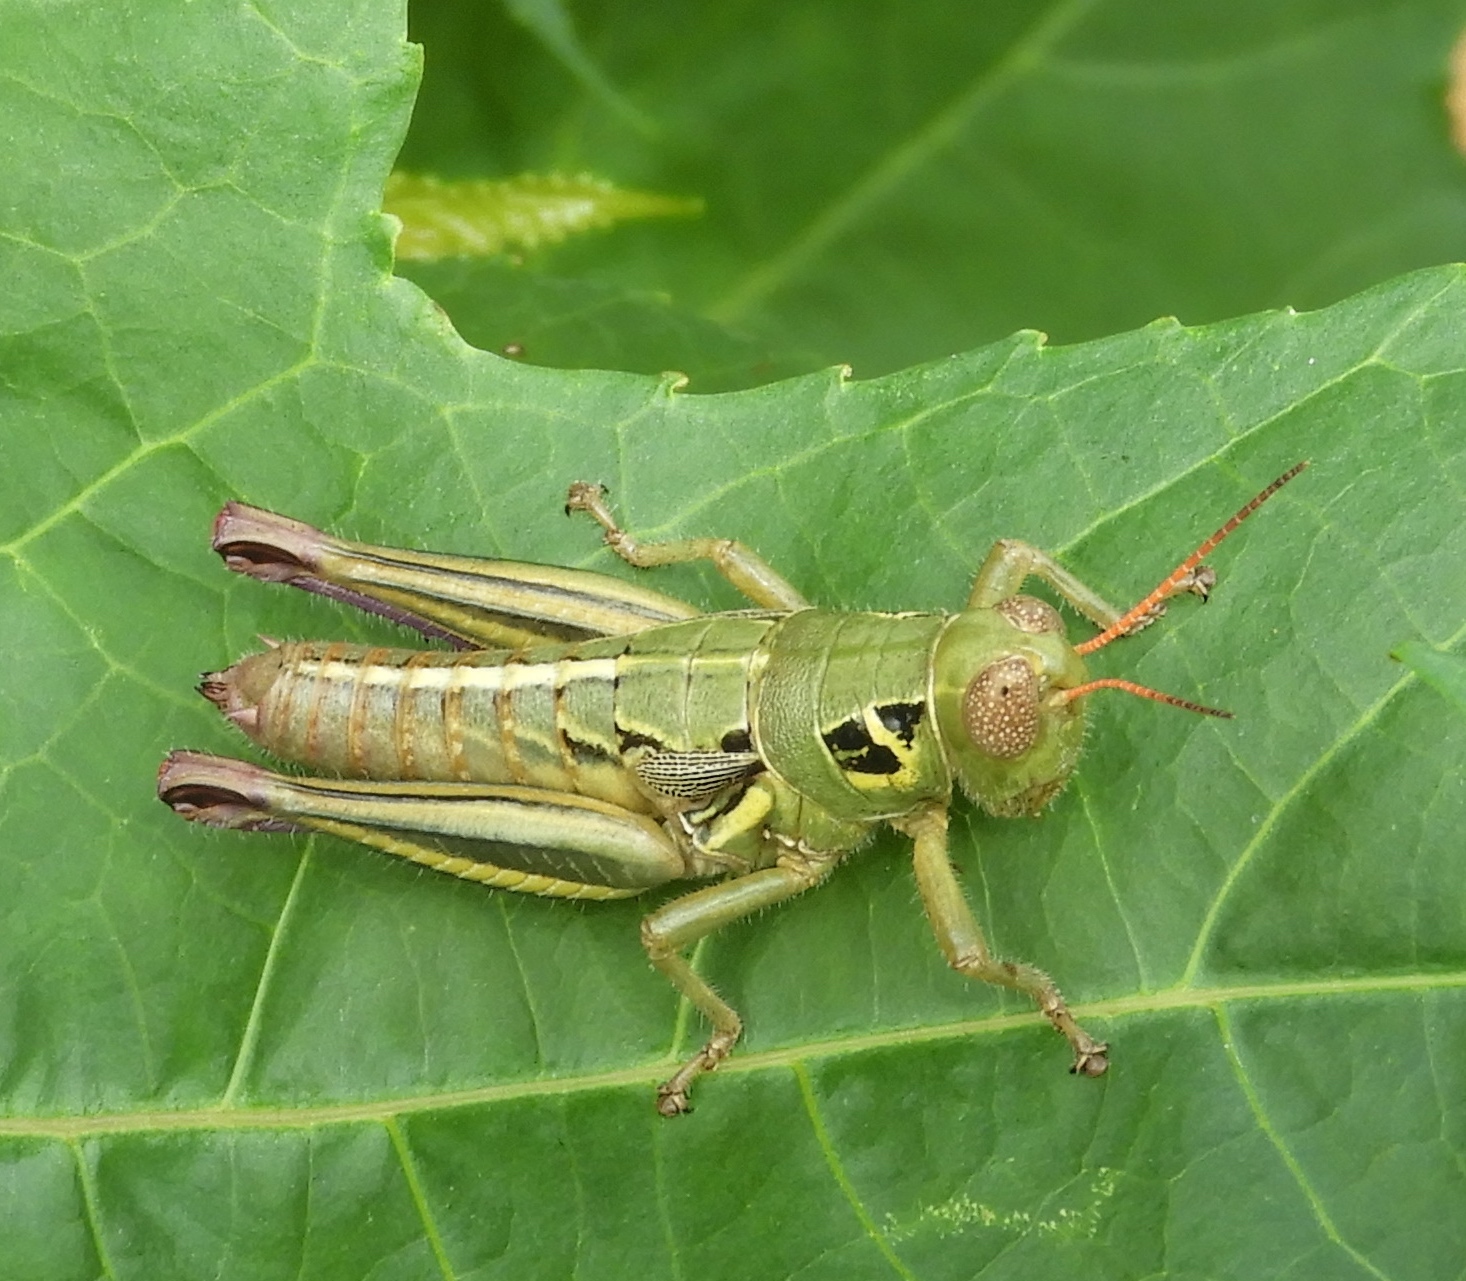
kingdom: Animalia
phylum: Arthropoda
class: Insecta
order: Orthoptera
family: Acrididae
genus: Barytettix
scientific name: Barytettix
